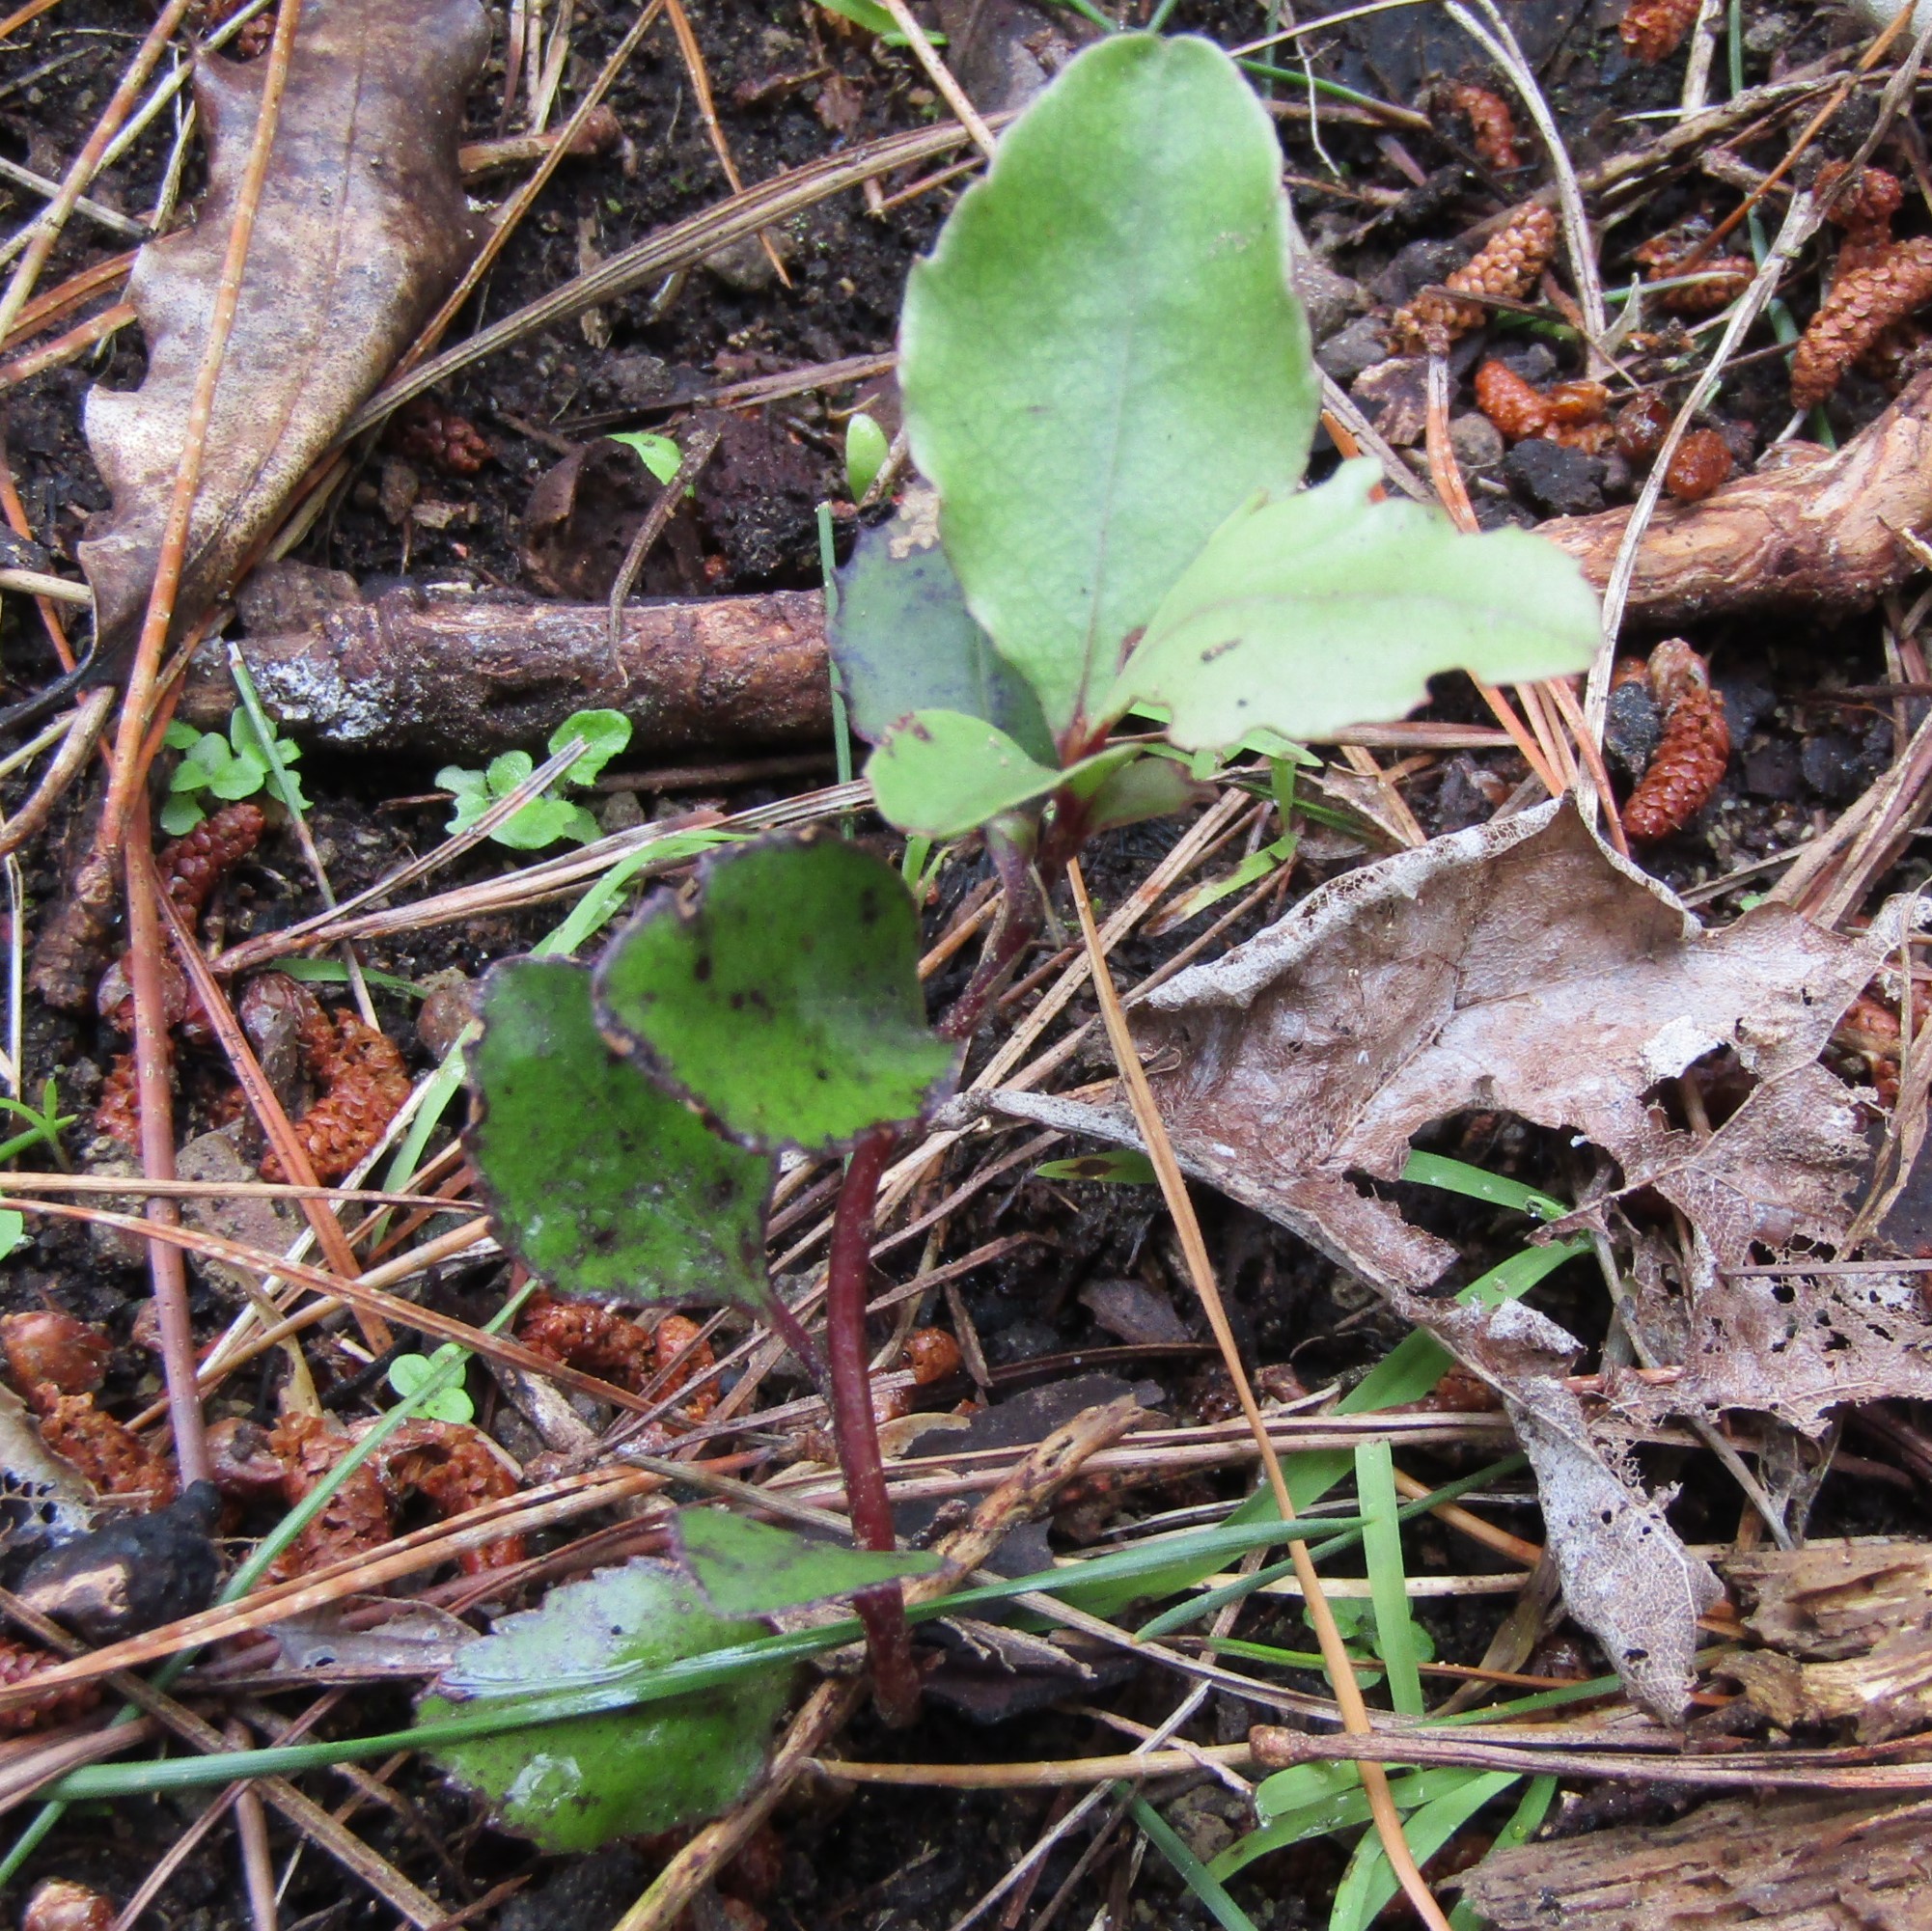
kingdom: Plantae
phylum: Tracheophyta
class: Magnoliopsida
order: Ericales
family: Primulaceae
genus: Myrsine
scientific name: Myrsine australis
